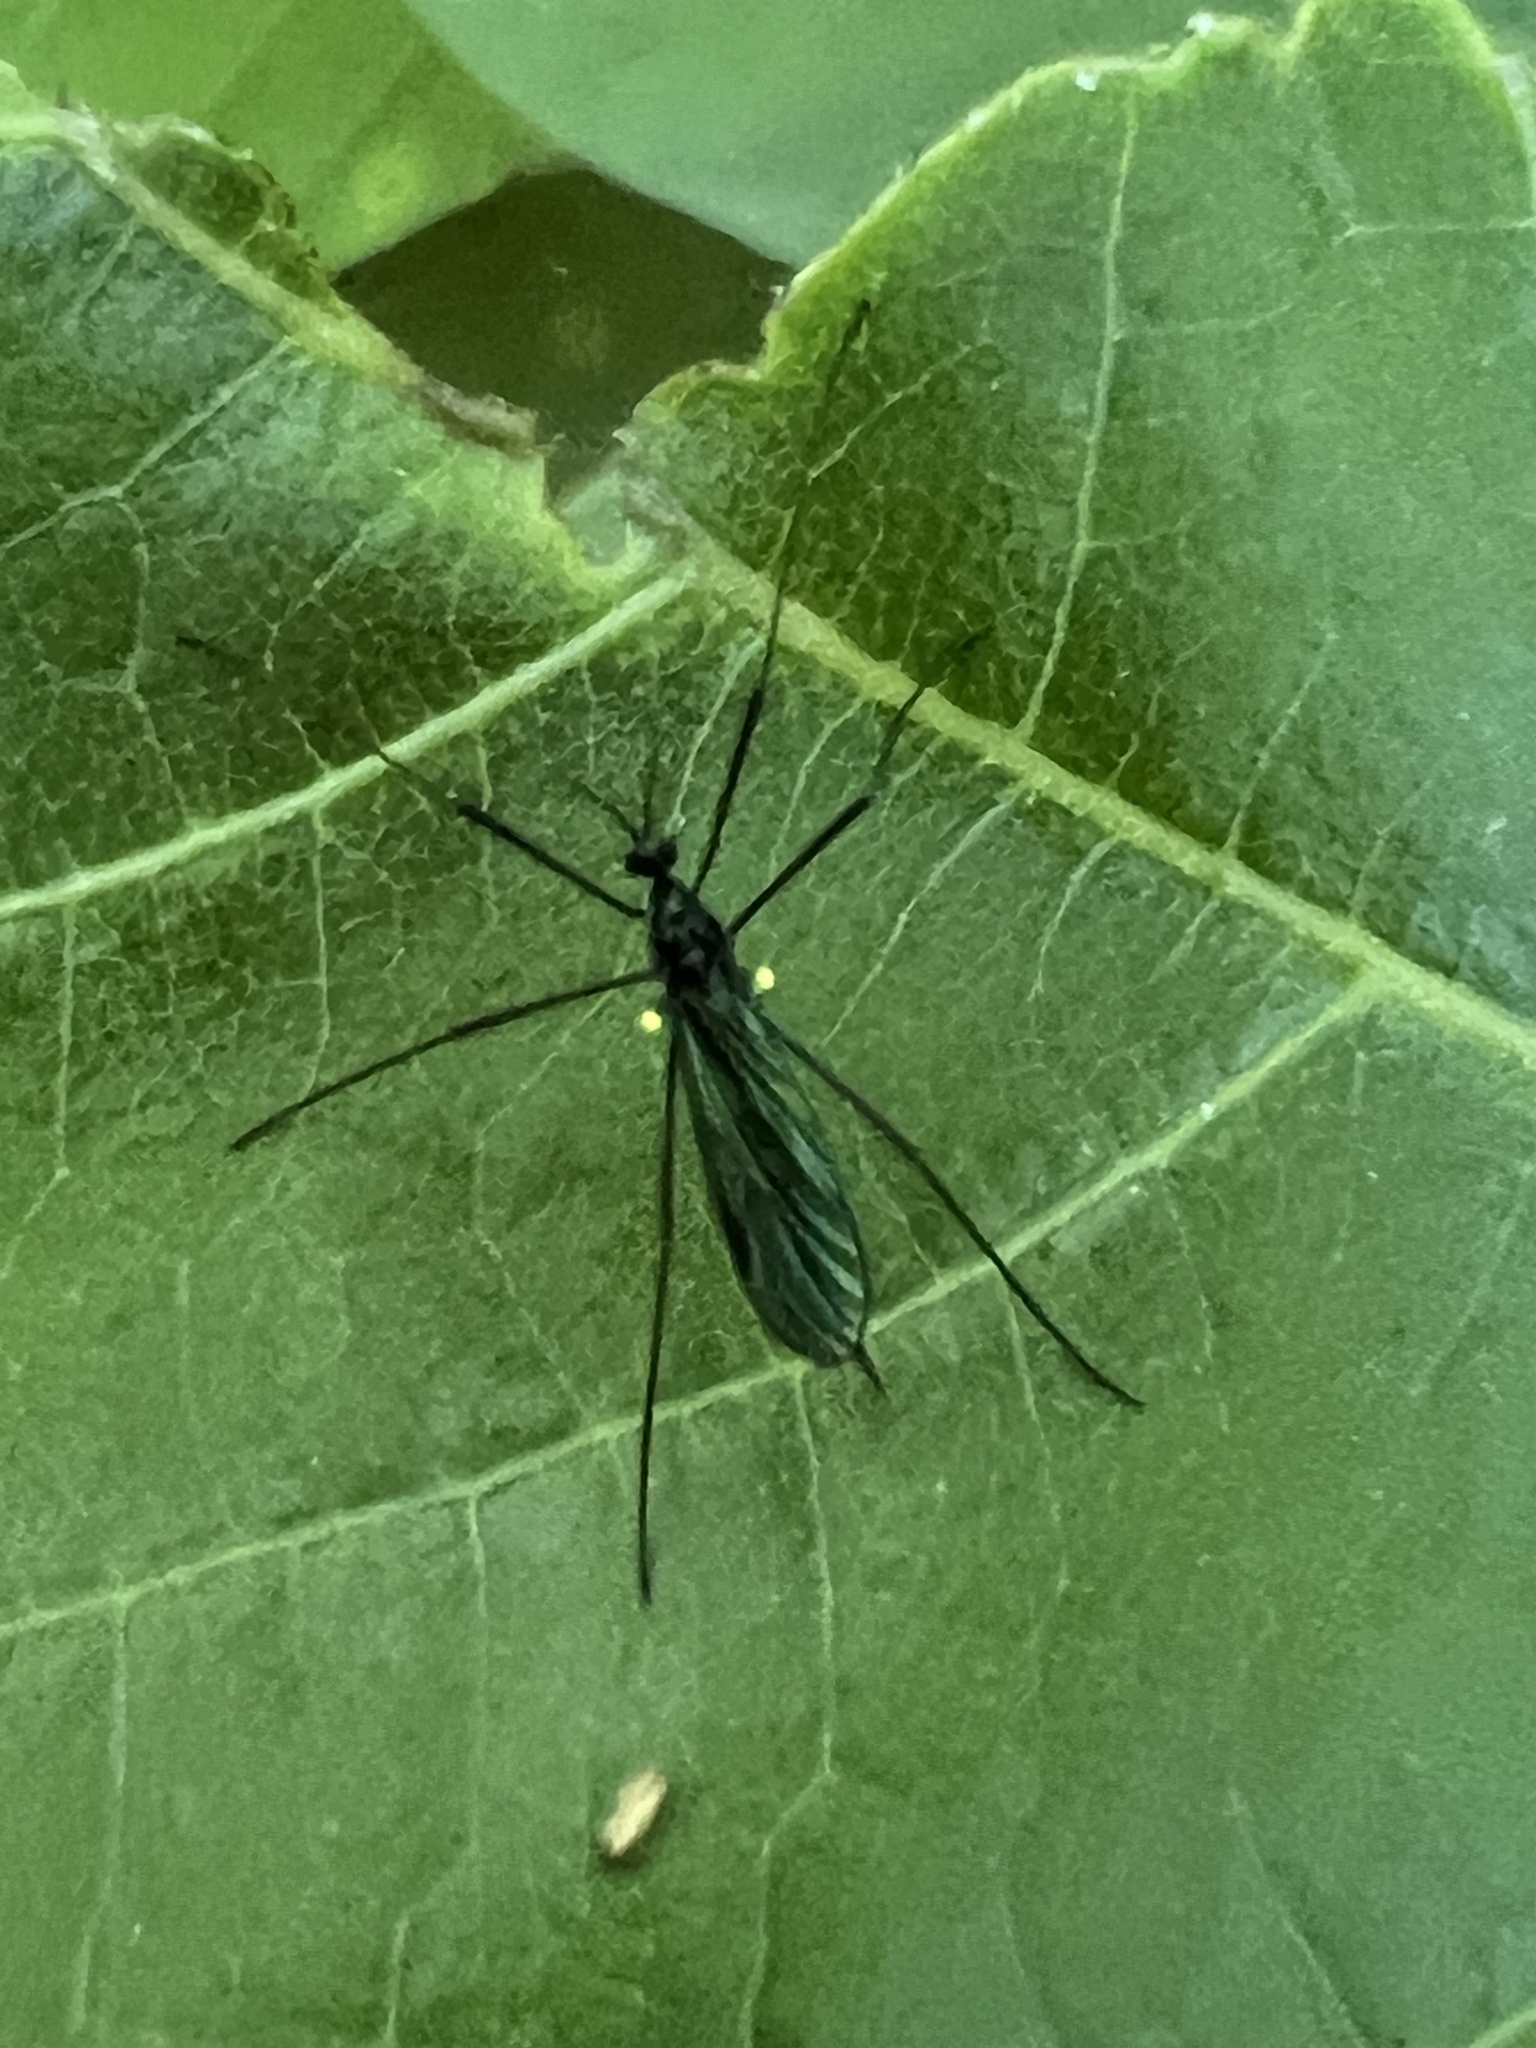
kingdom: Animalia
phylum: Arthropoda
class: Insecta
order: Diptera
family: Limoniidae
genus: Gnophomyia
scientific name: Gnophomyia tristissima
